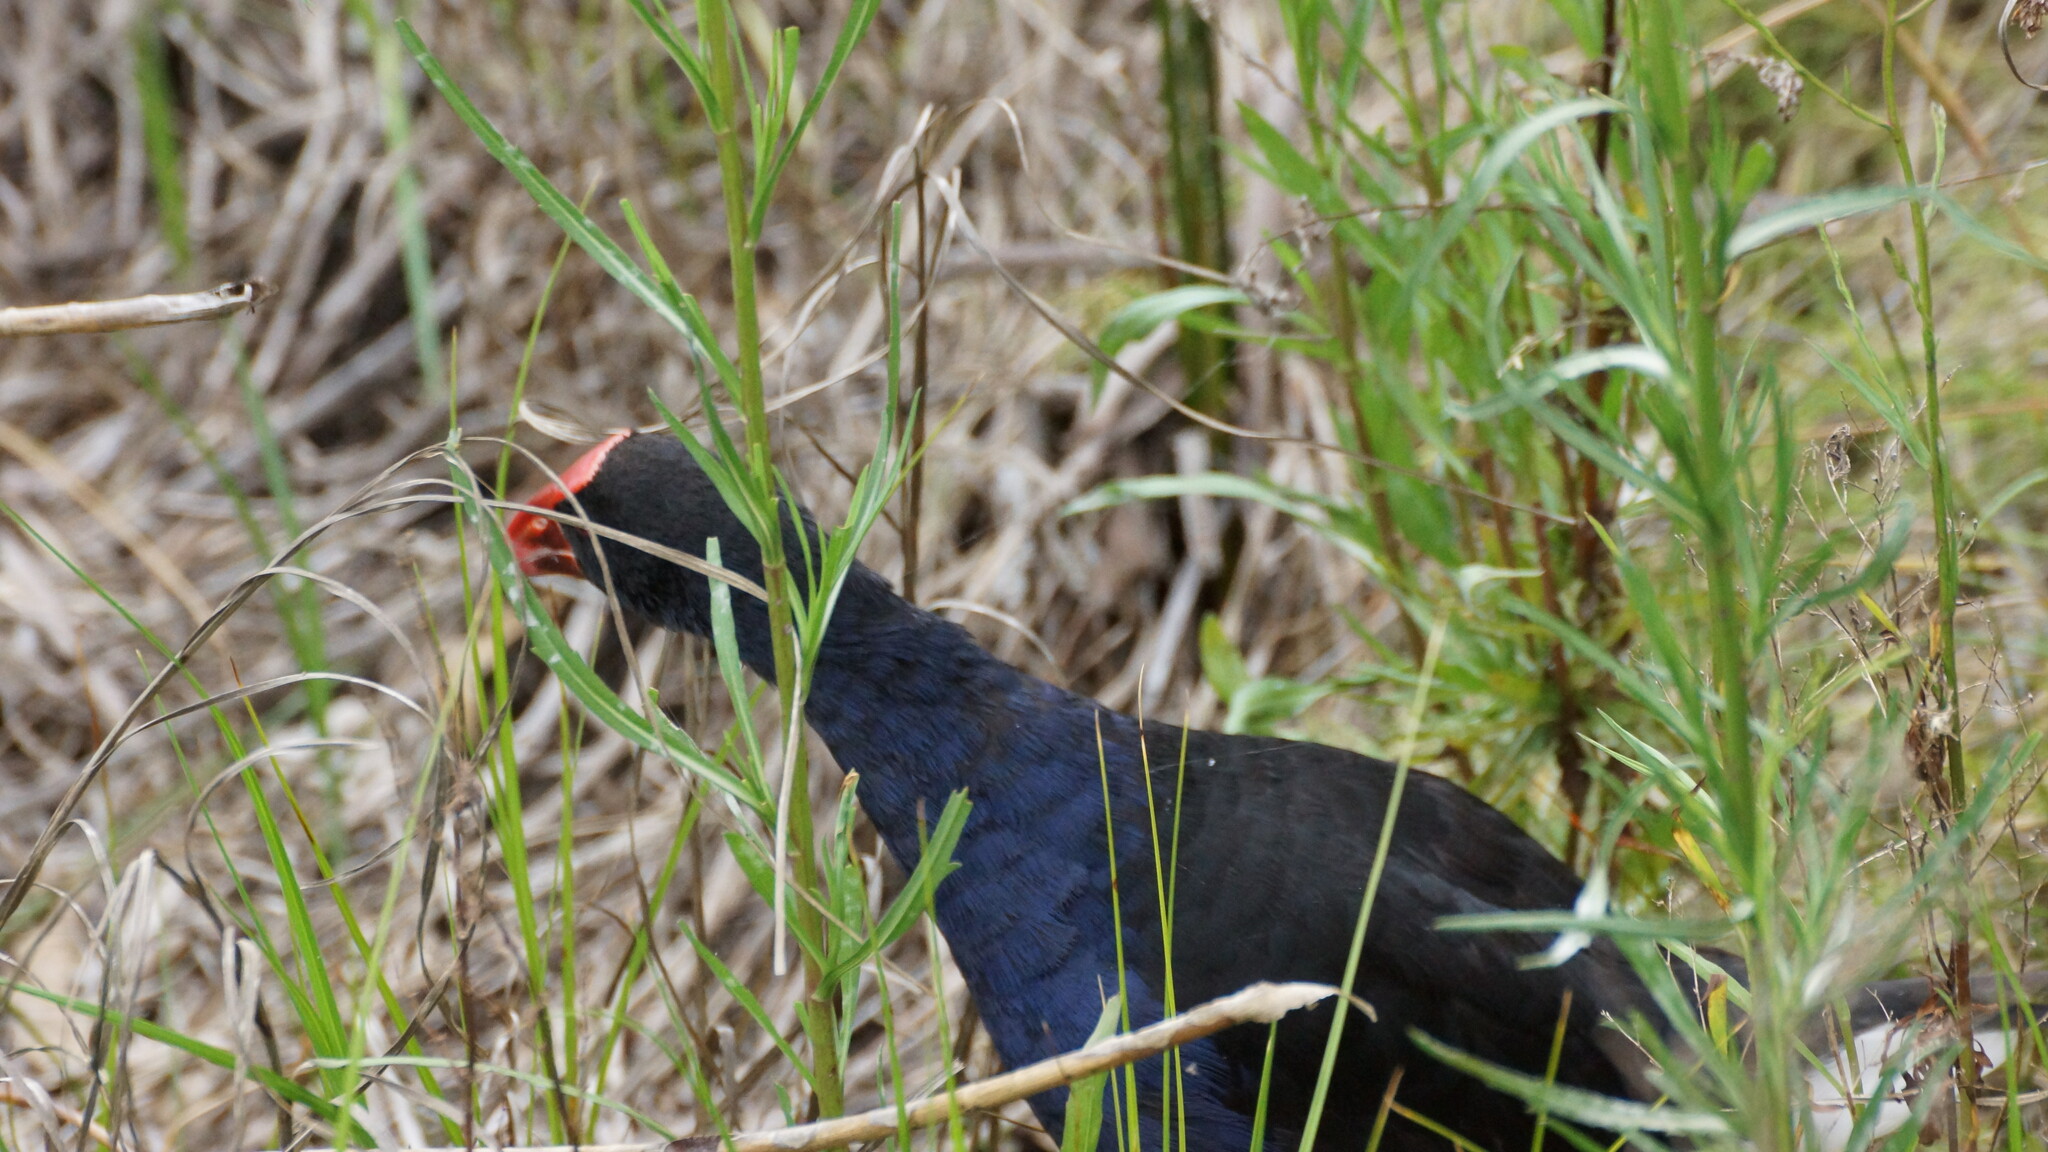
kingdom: Animalia
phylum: Chordata
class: Aves
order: Gruiformes
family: Rallidae
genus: Porphyrio
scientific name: Porphyrio melanotus
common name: Australasian swamphen
